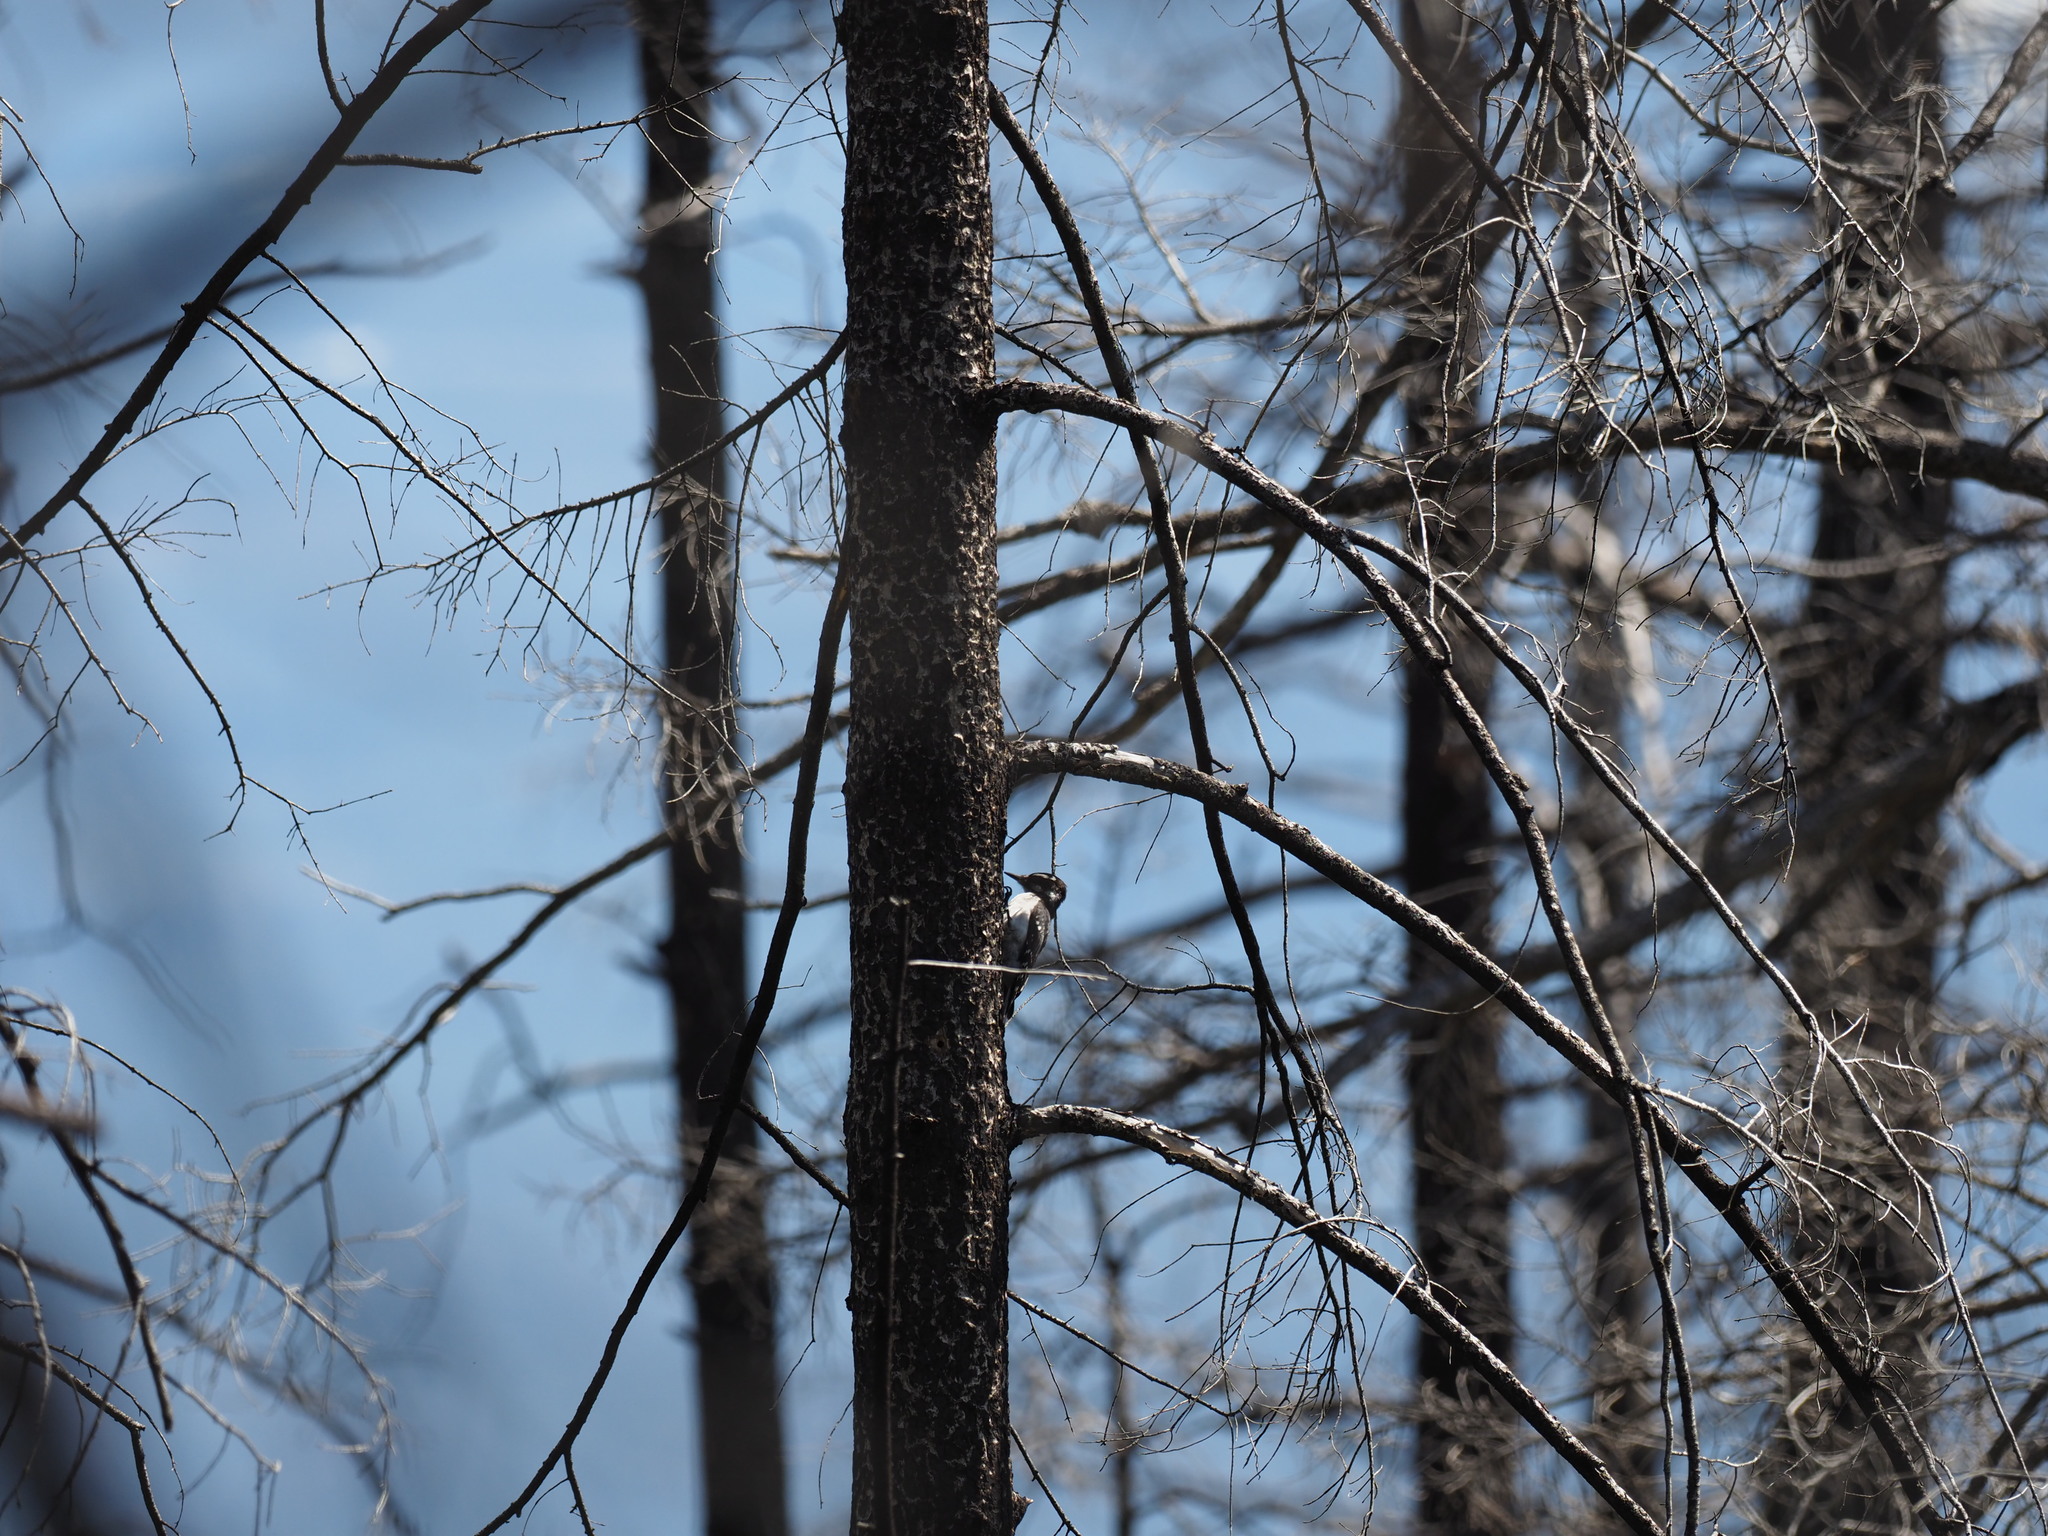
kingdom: Animalia
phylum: Chordata
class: Aves
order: Piciformes
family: Picidae
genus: Leuconotopicus
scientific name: Leuconotopicus villosus
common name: Hairy woodpecker
